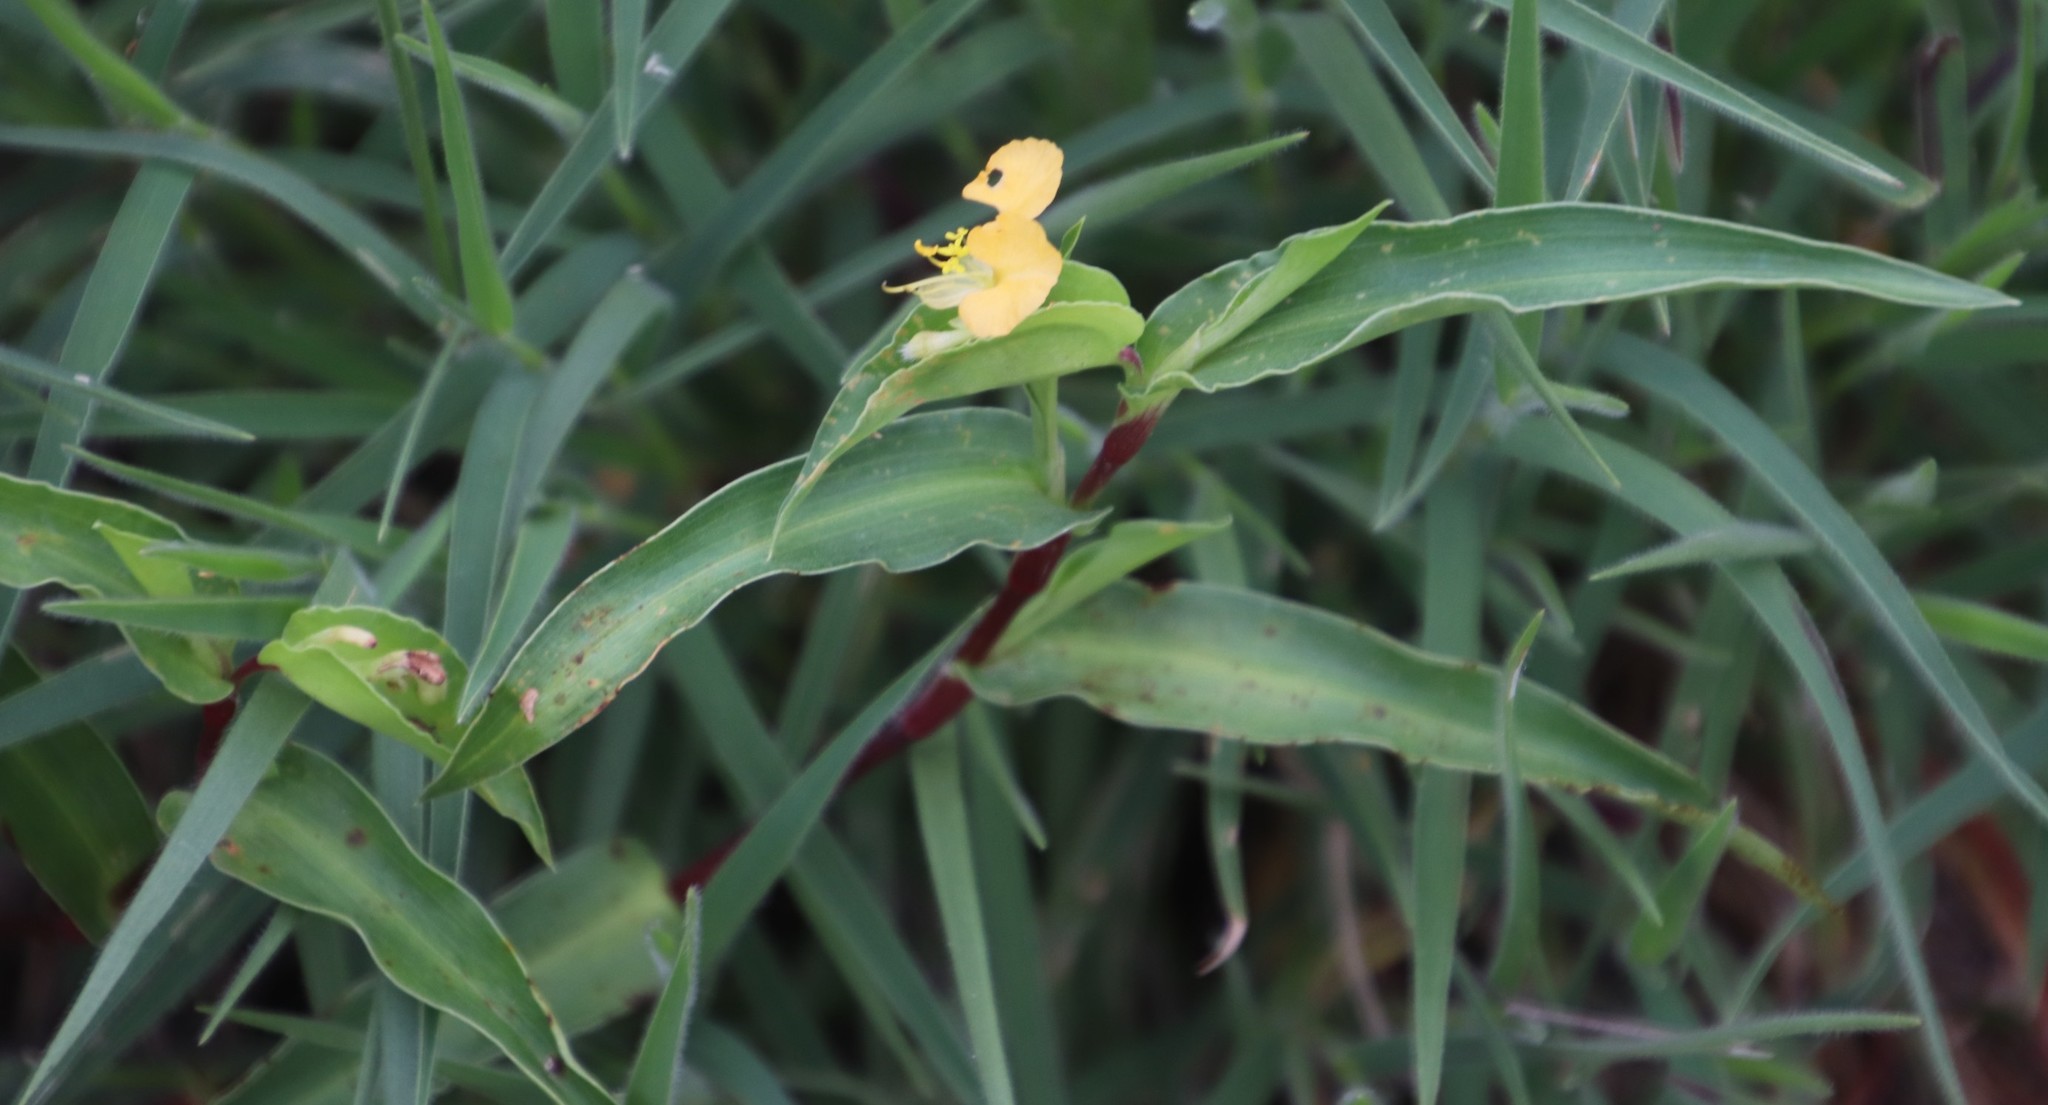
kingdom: Plantae
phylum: Tracheophyta
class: Liliopsida
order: Commelinales
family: Commelinaceae
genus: Commelina
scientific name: Commelina africana
